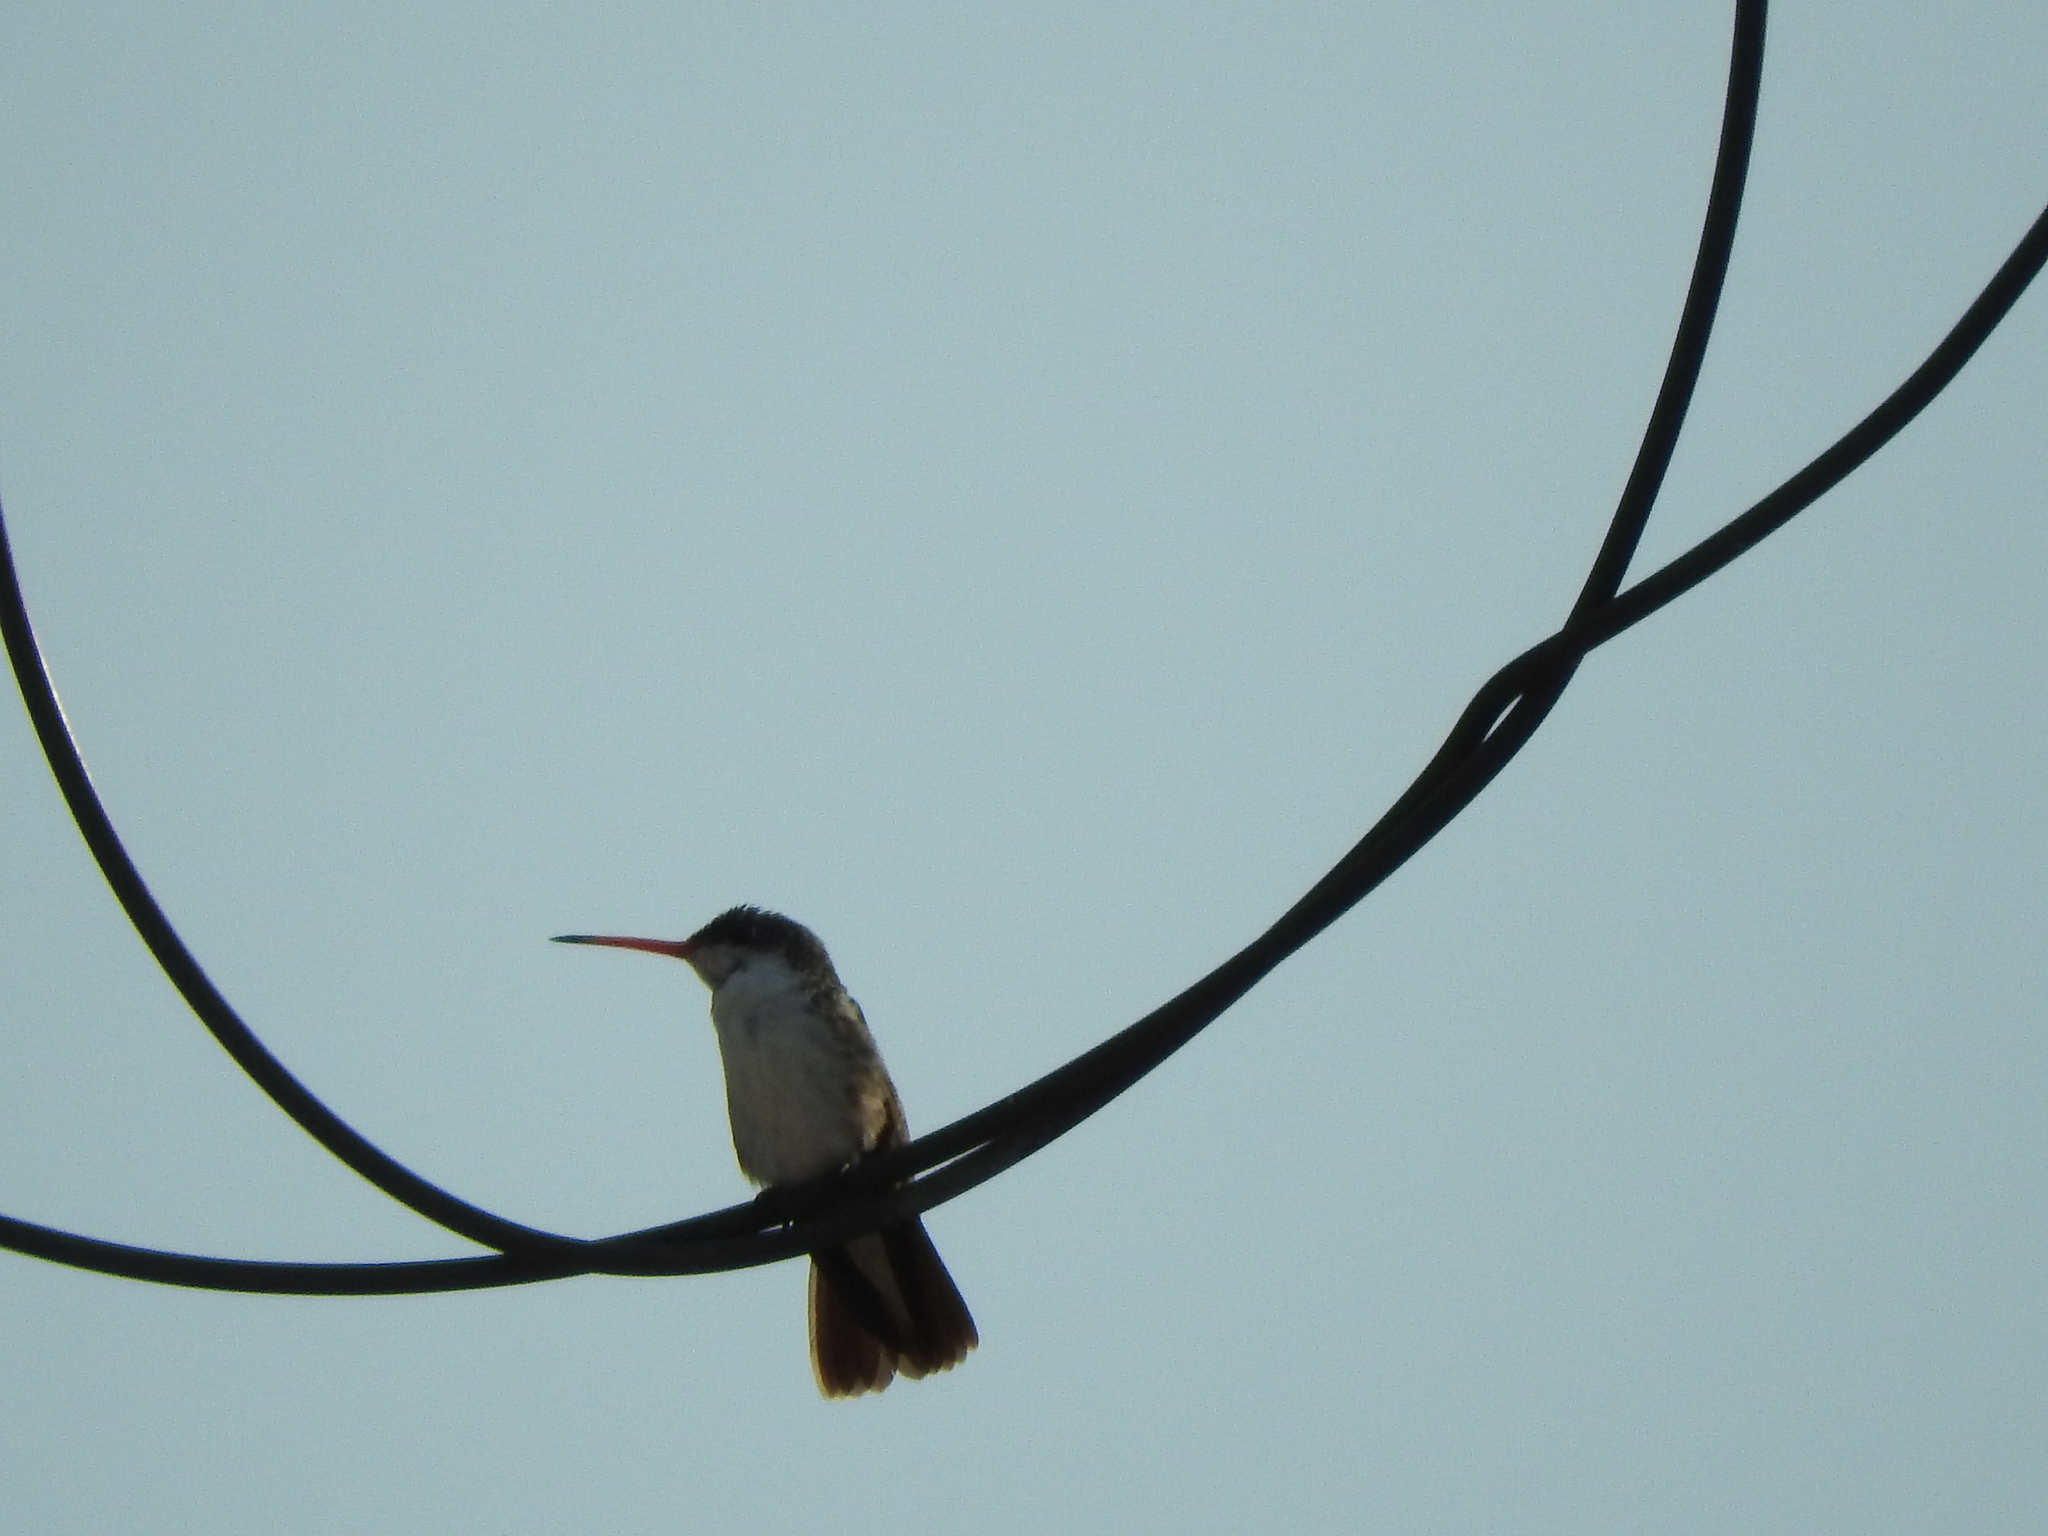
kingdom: Animalia
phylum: Chordata
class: Aves
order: Apodiformes
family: Trochilidae
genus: Leucolia
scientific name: Leucolia violiceps
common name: Violet-crowned hummingbird
